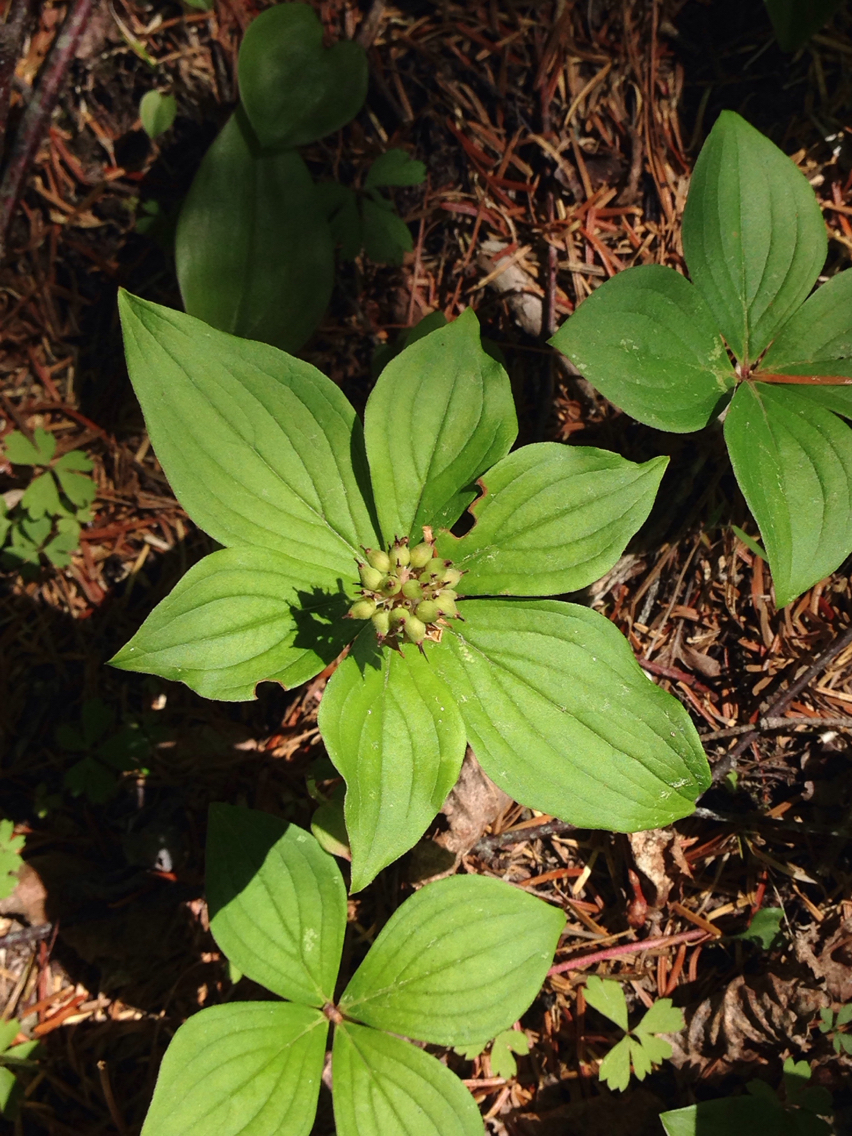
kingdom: Plantae
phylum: Tracheophyta
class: Magnoliopsida
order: Cornales
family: Cornaceae
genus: Cornus
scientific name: Cornus canadensis
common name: Creeping dogwood
